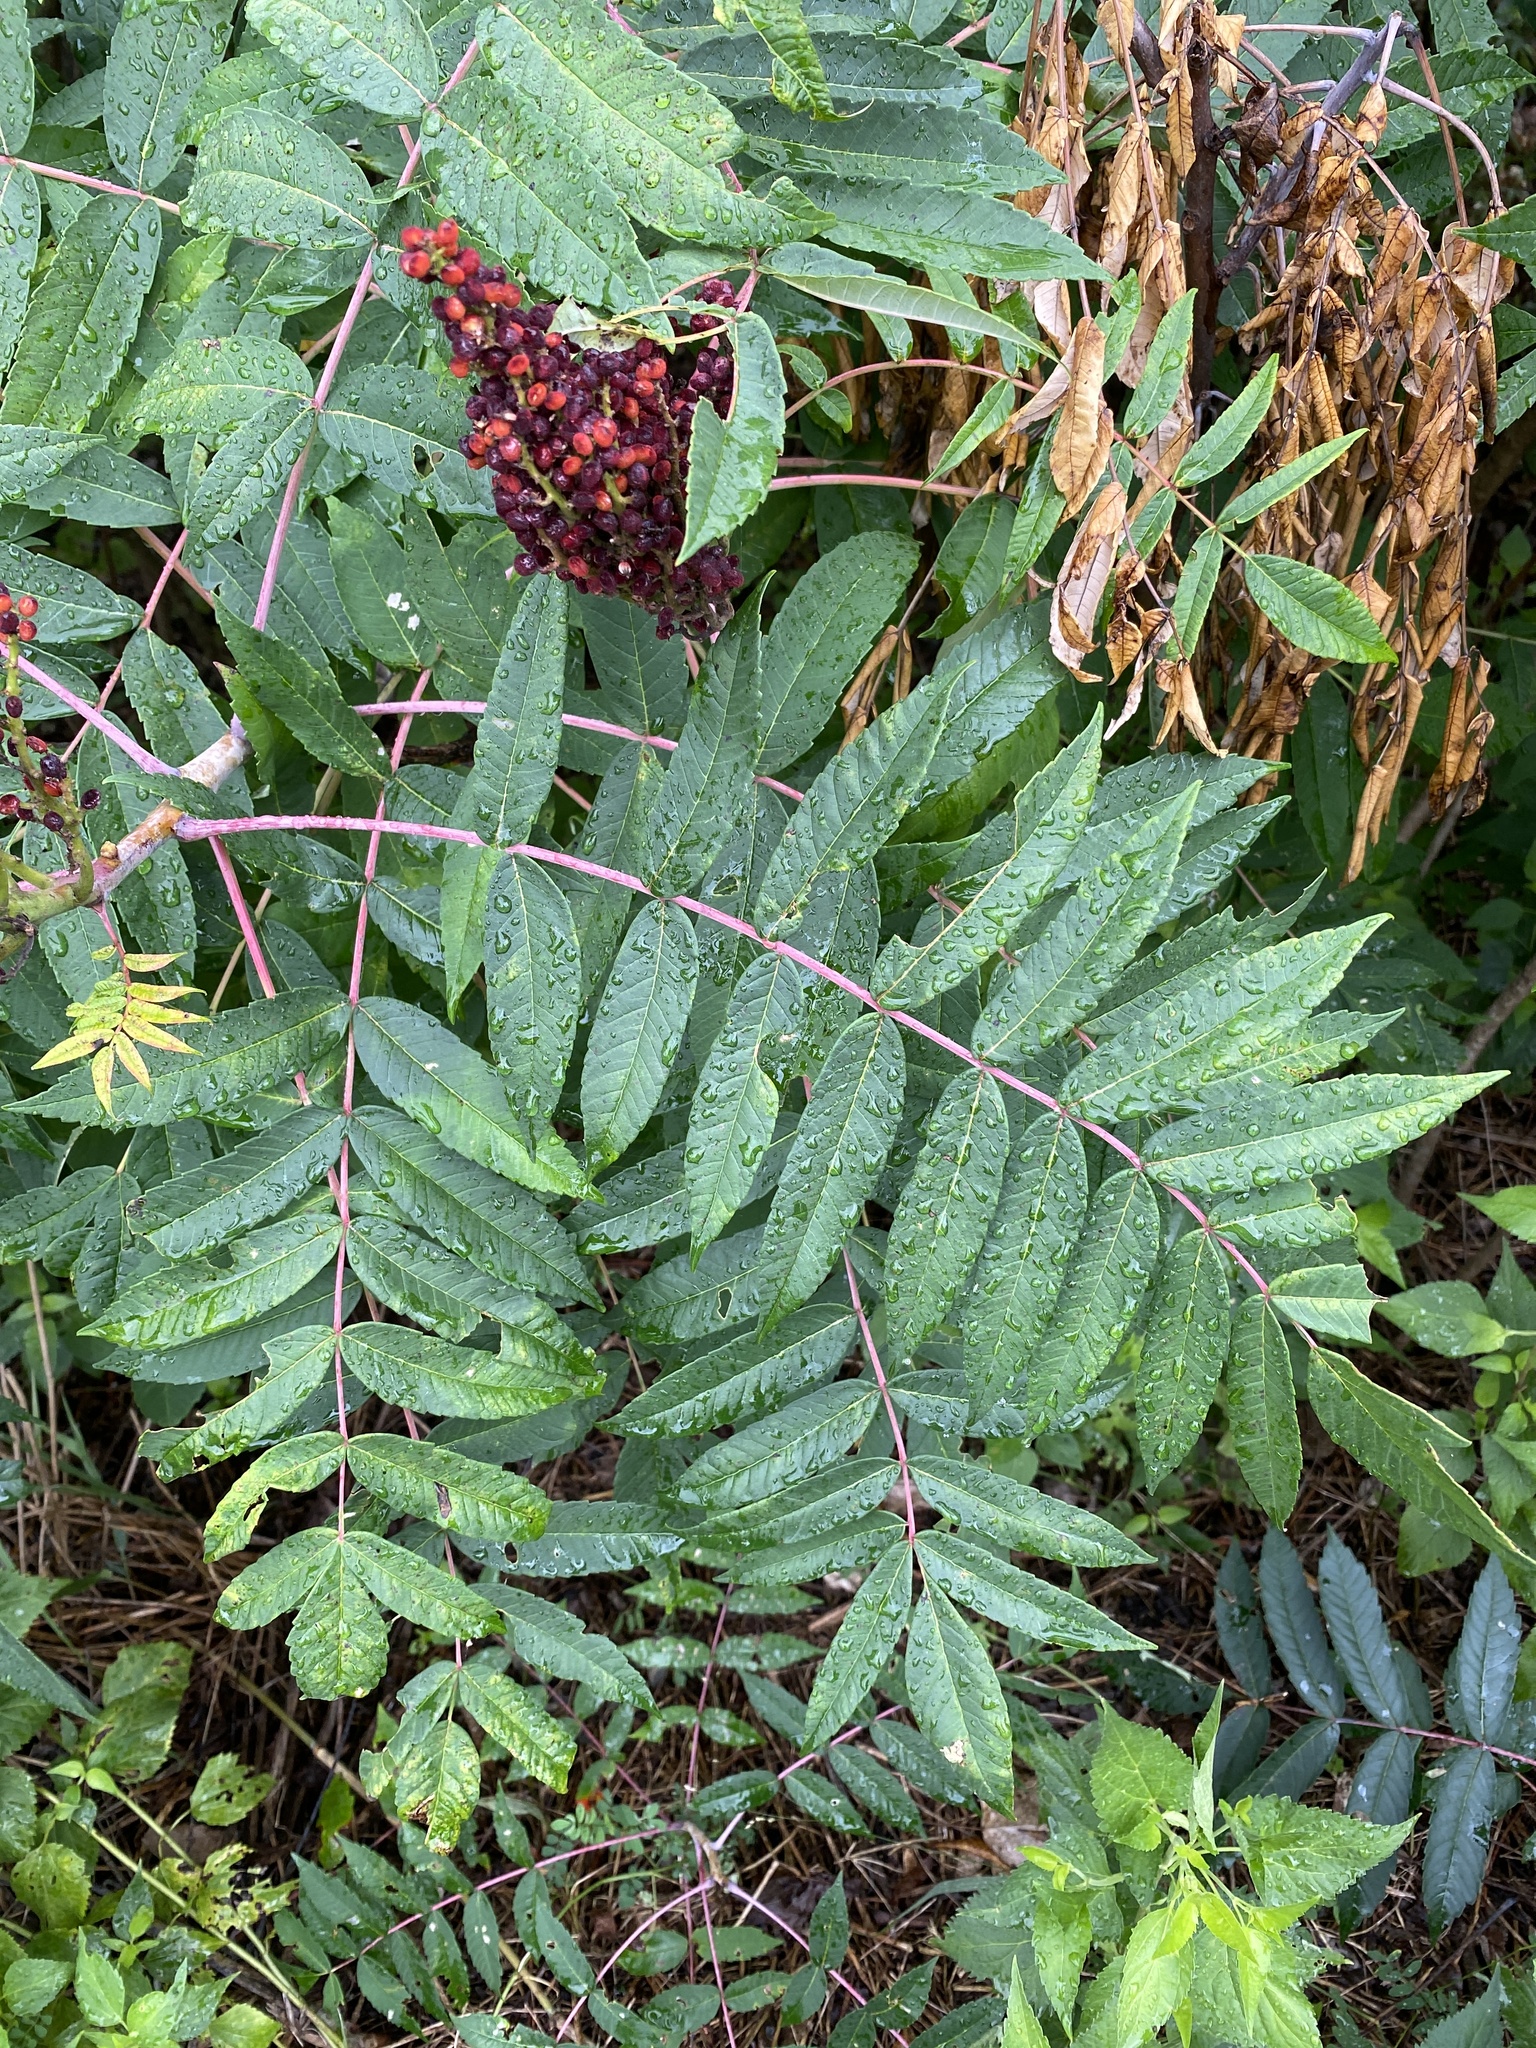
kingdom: Plantae
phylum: Tracheophyta
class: Magnoliopsida
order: Sapindales
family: Anacardiaceae
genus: Rhus
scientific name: Rhus glabra
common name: Scarlet sumac
